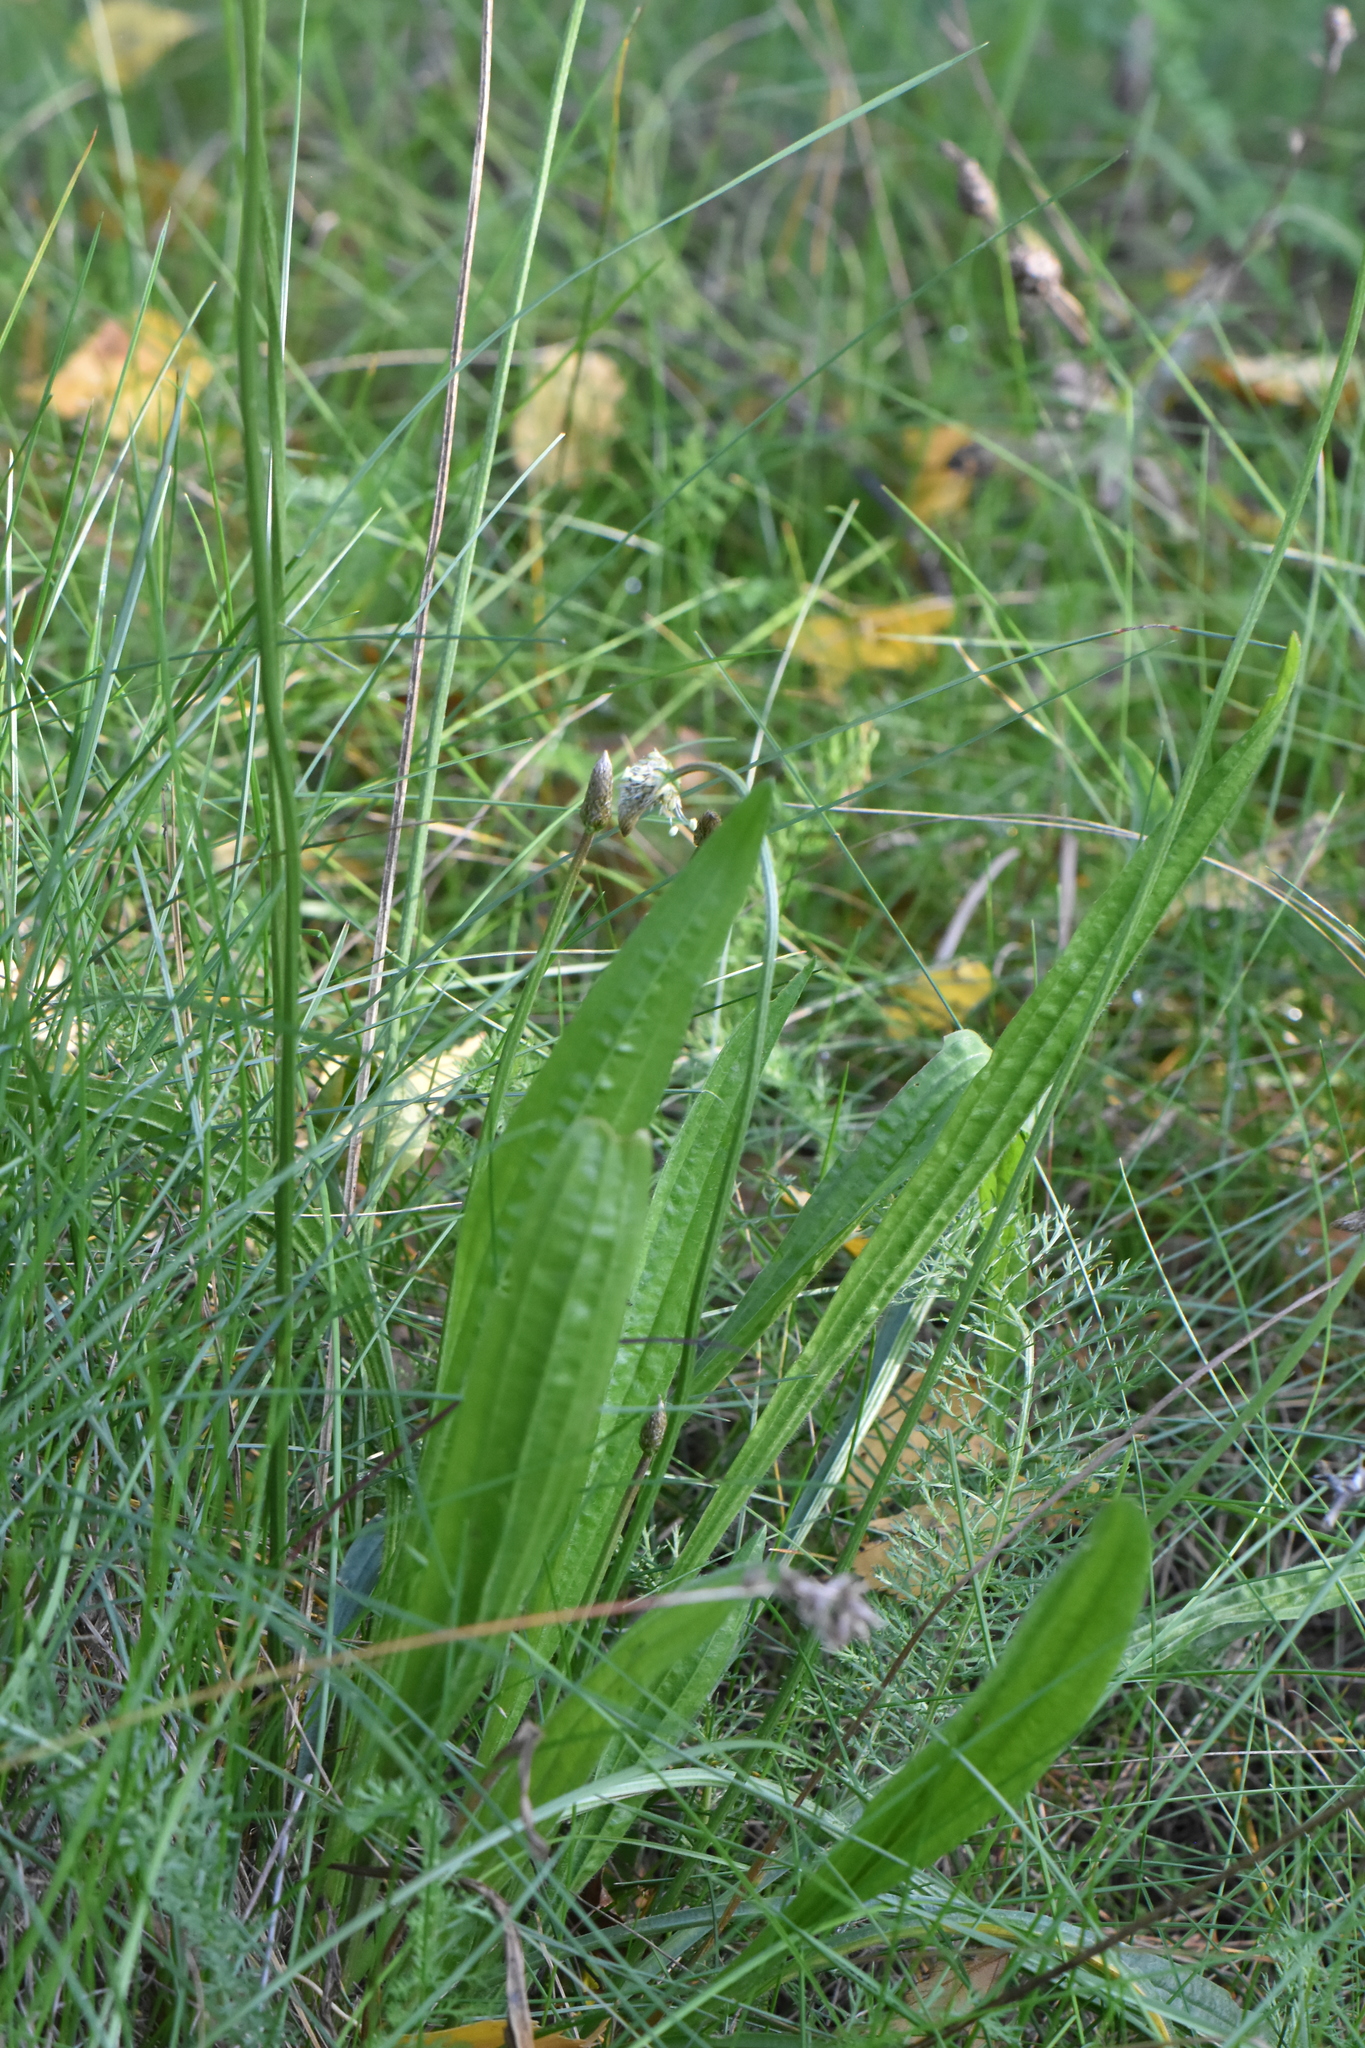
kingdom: Plantae
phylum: Tracheophyta
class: Magnoliopsida
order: Lamiales
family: Plantaginaceae
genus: Plantago
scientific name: Plantago lanceolata
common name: Ribwort plantain
